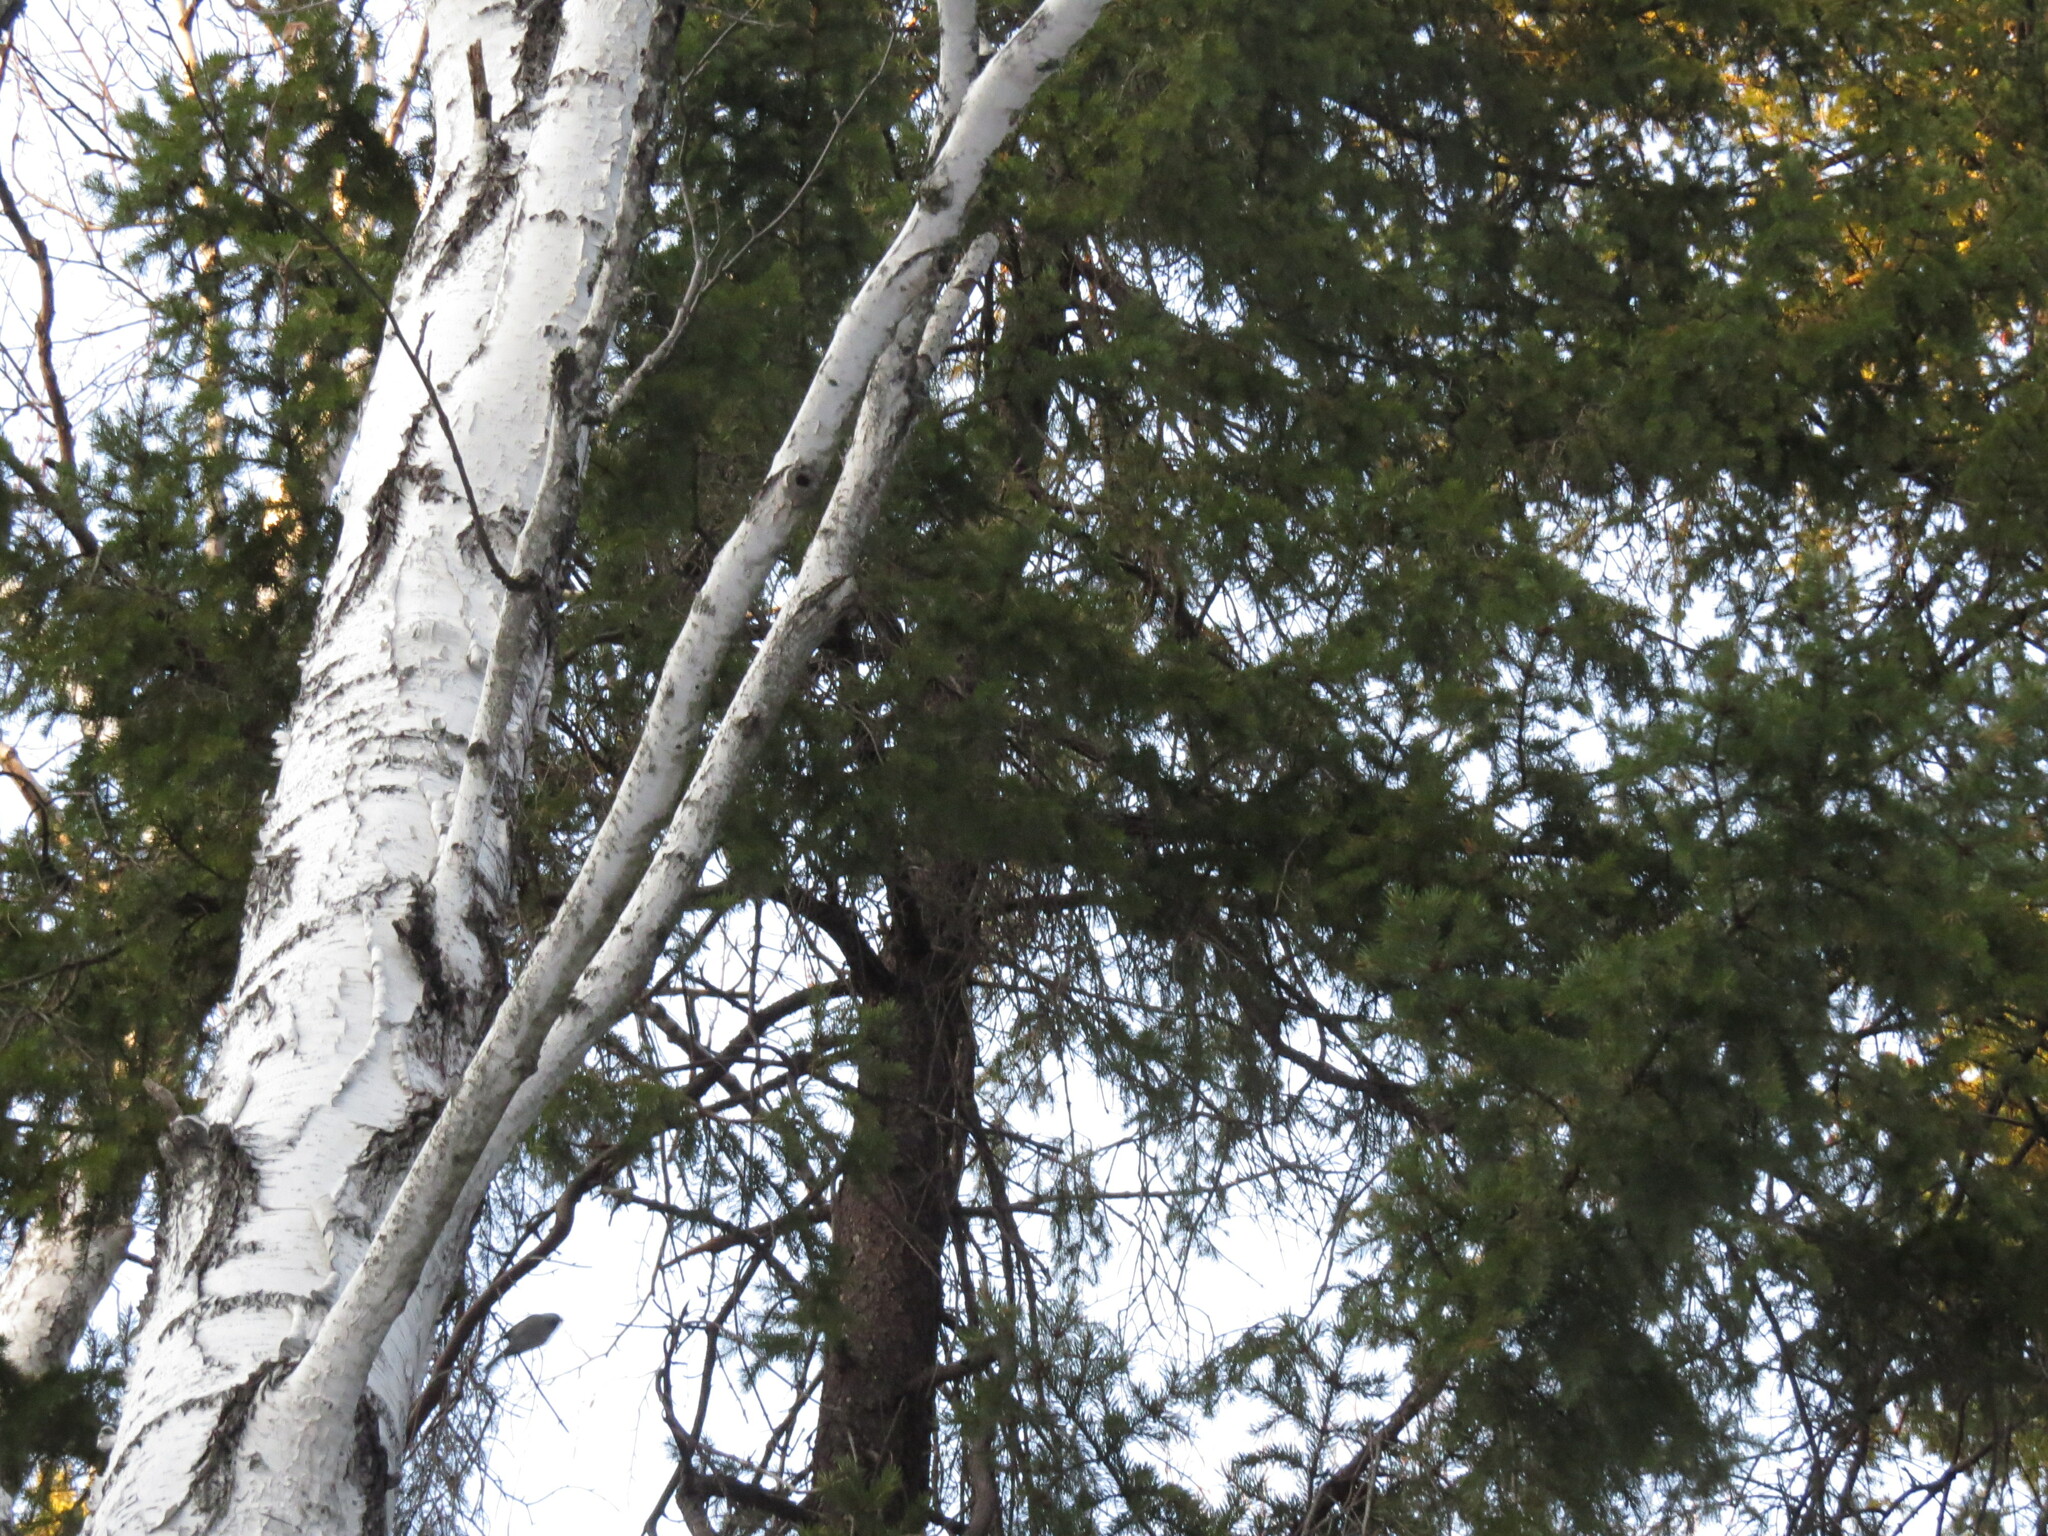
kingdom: Animalia
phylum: Chordata
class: Aves
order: Passeriformes
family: Paridae
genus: Poecile
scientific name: Poecile montanus
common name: Willow tit
